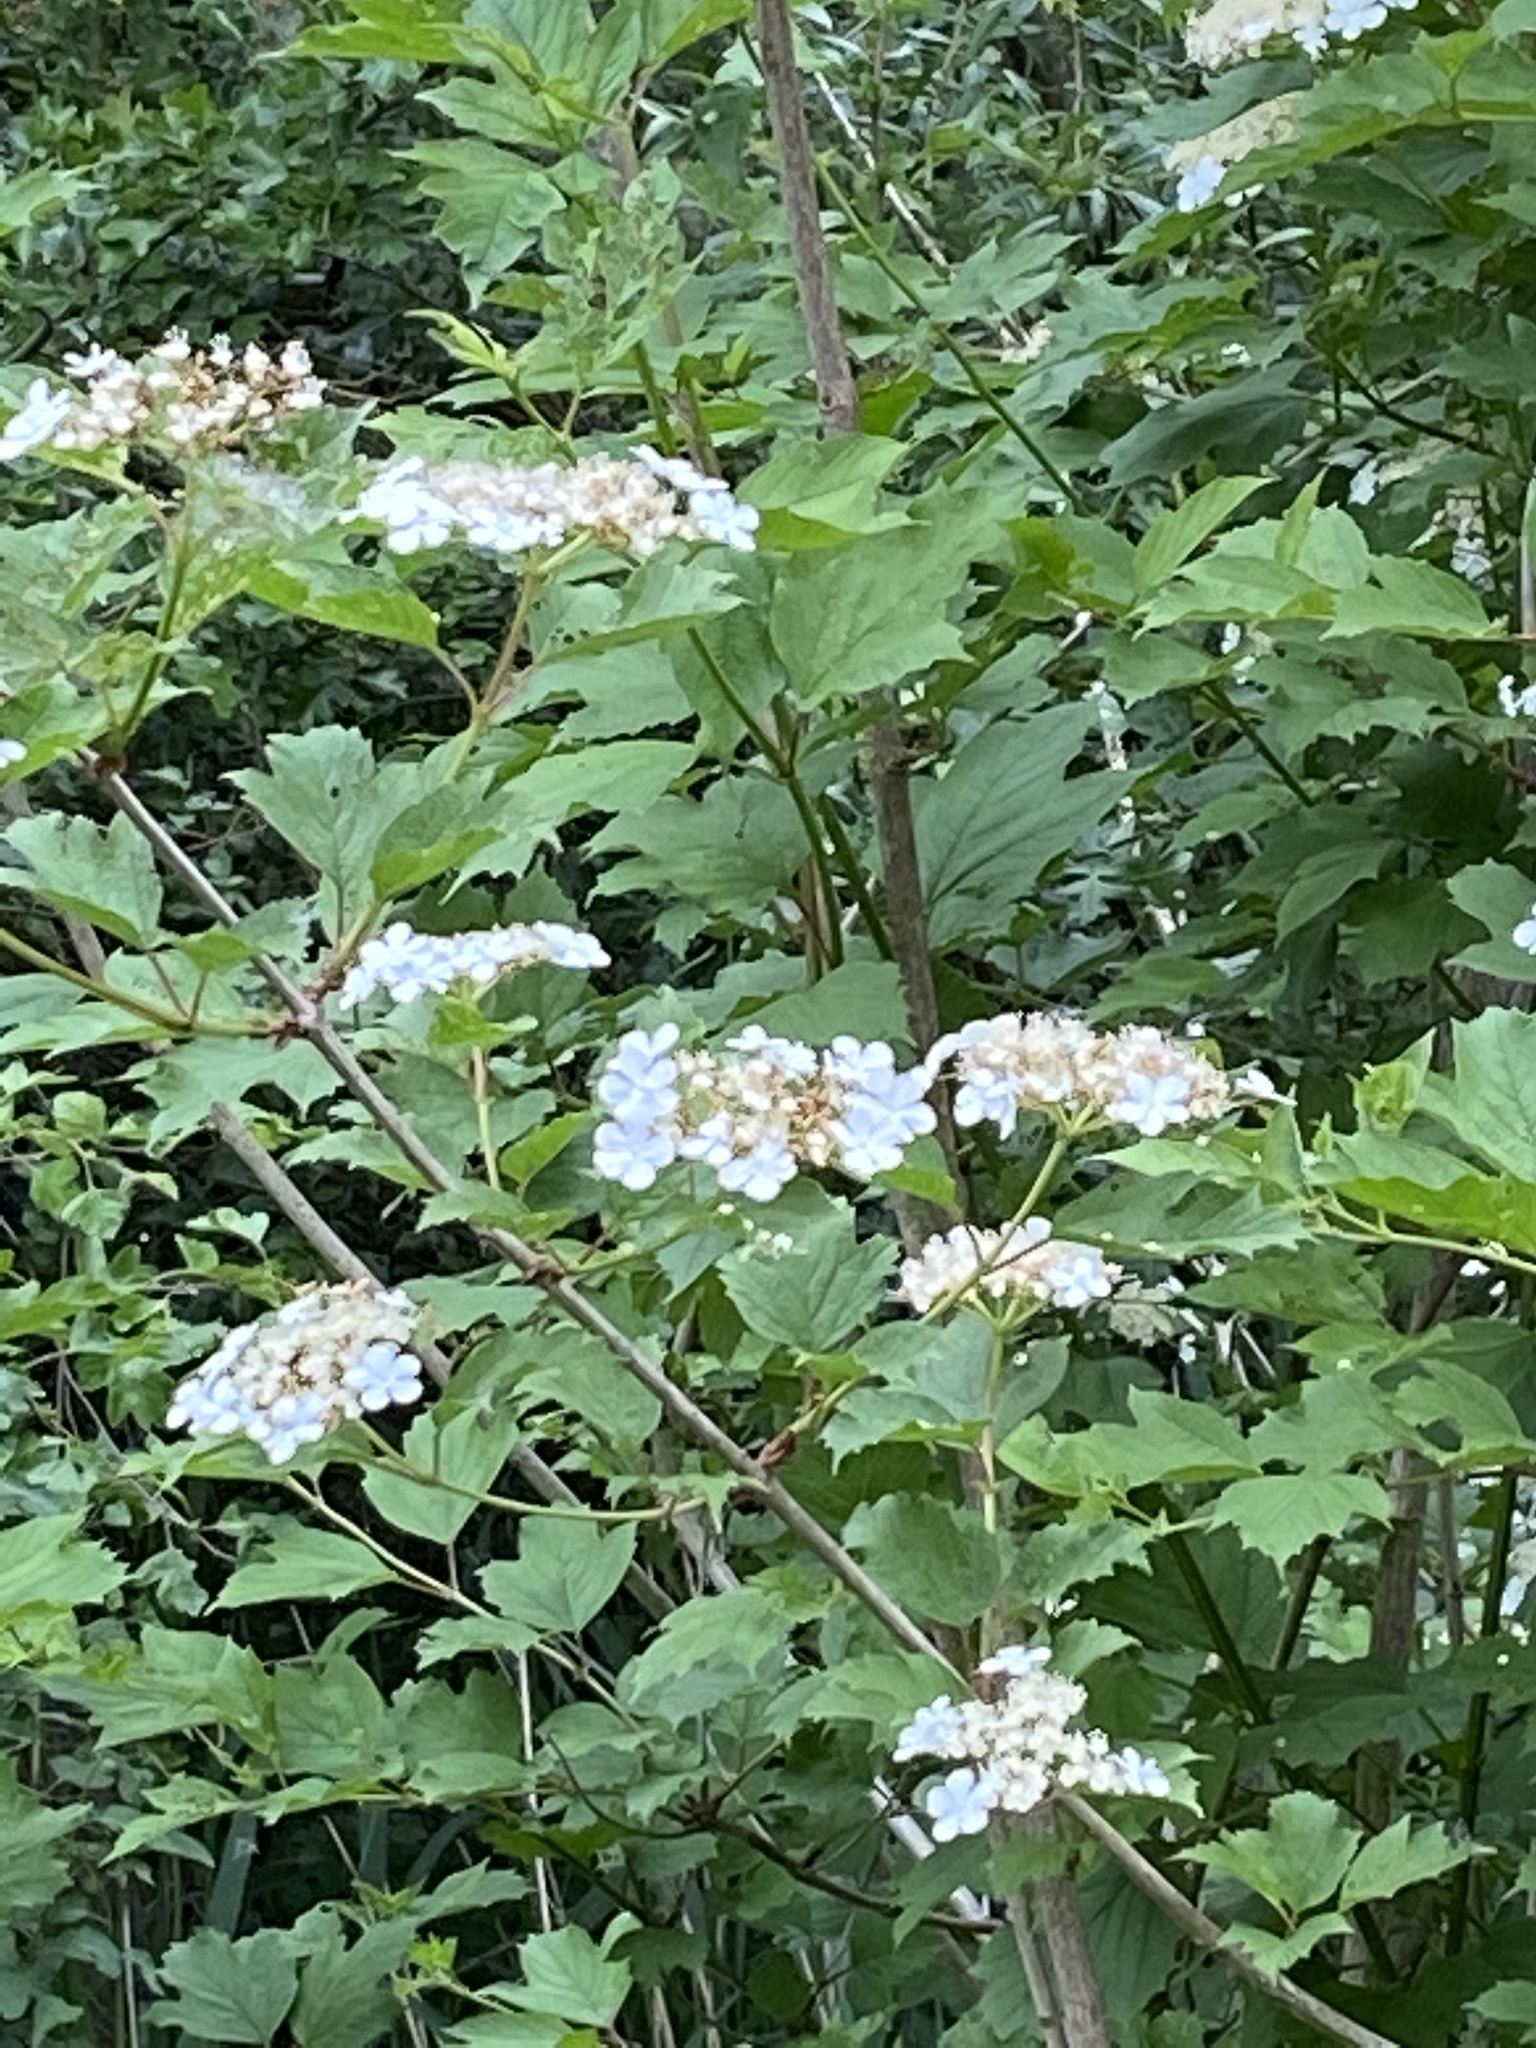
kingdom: Plantae
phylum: Tracheophyta
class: Magnoliopsida
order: Dipsacales
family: Viburnaceae
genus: Viburnum
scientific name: Viburnum opulus
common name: Guelder-rose
